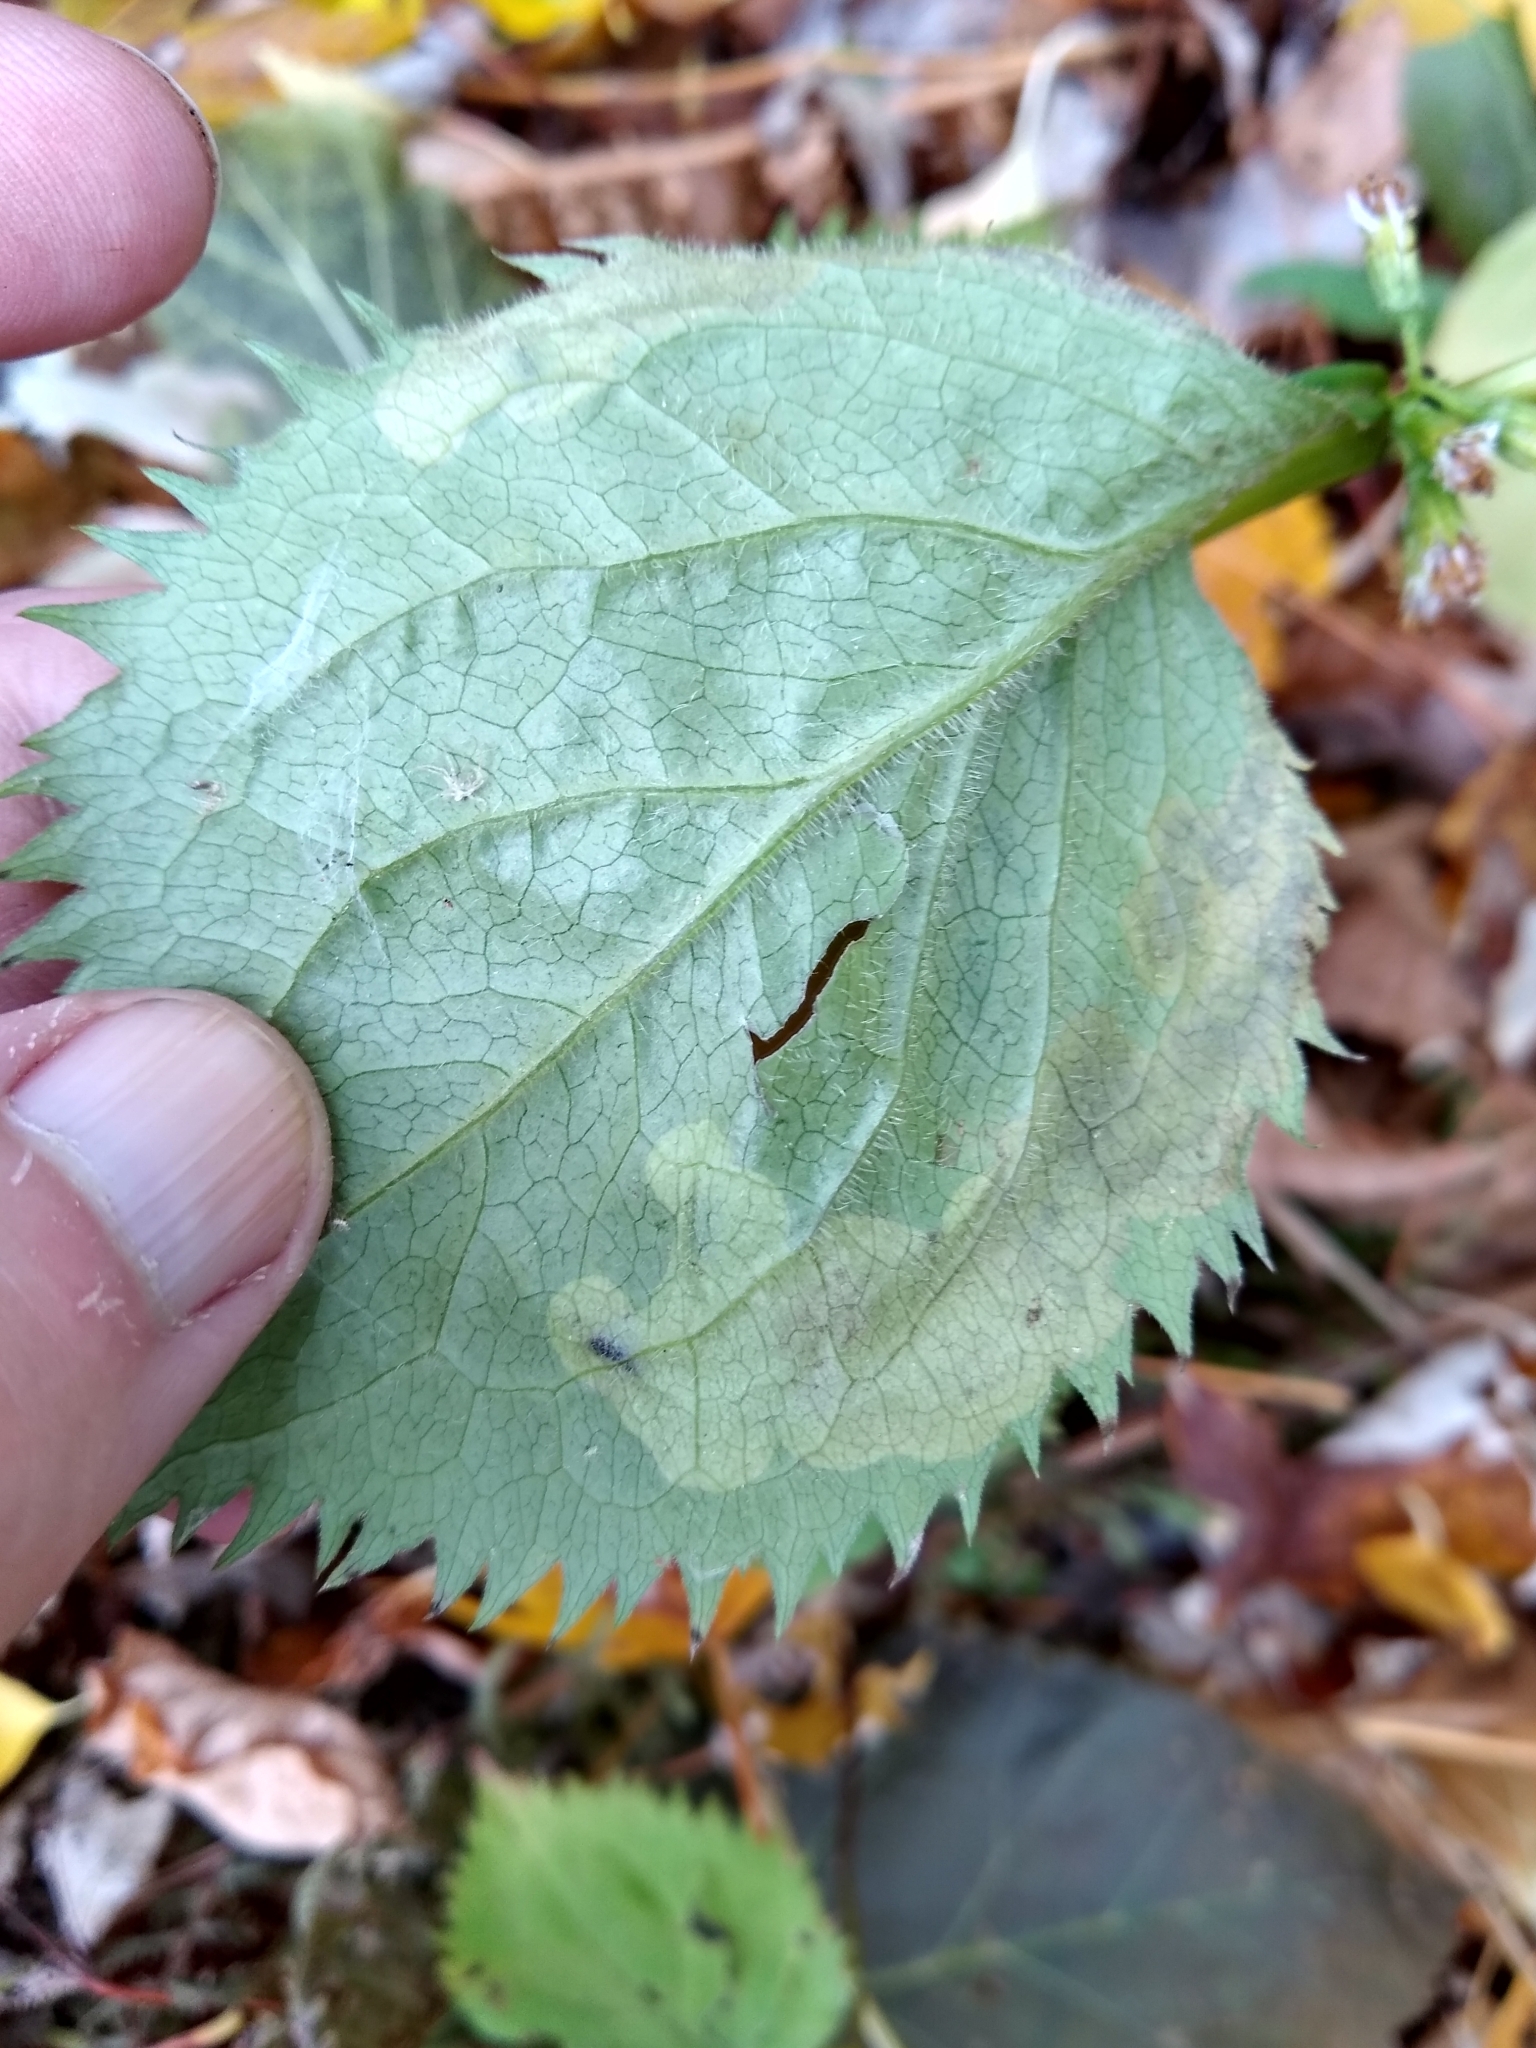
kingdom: Plantae
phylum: Tracheophyta
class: Magnoliopsida
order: Asterales
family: Asteraceae
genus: Solidago
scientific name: Solidago flexicaulis
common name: Zig-zag goldenrod
